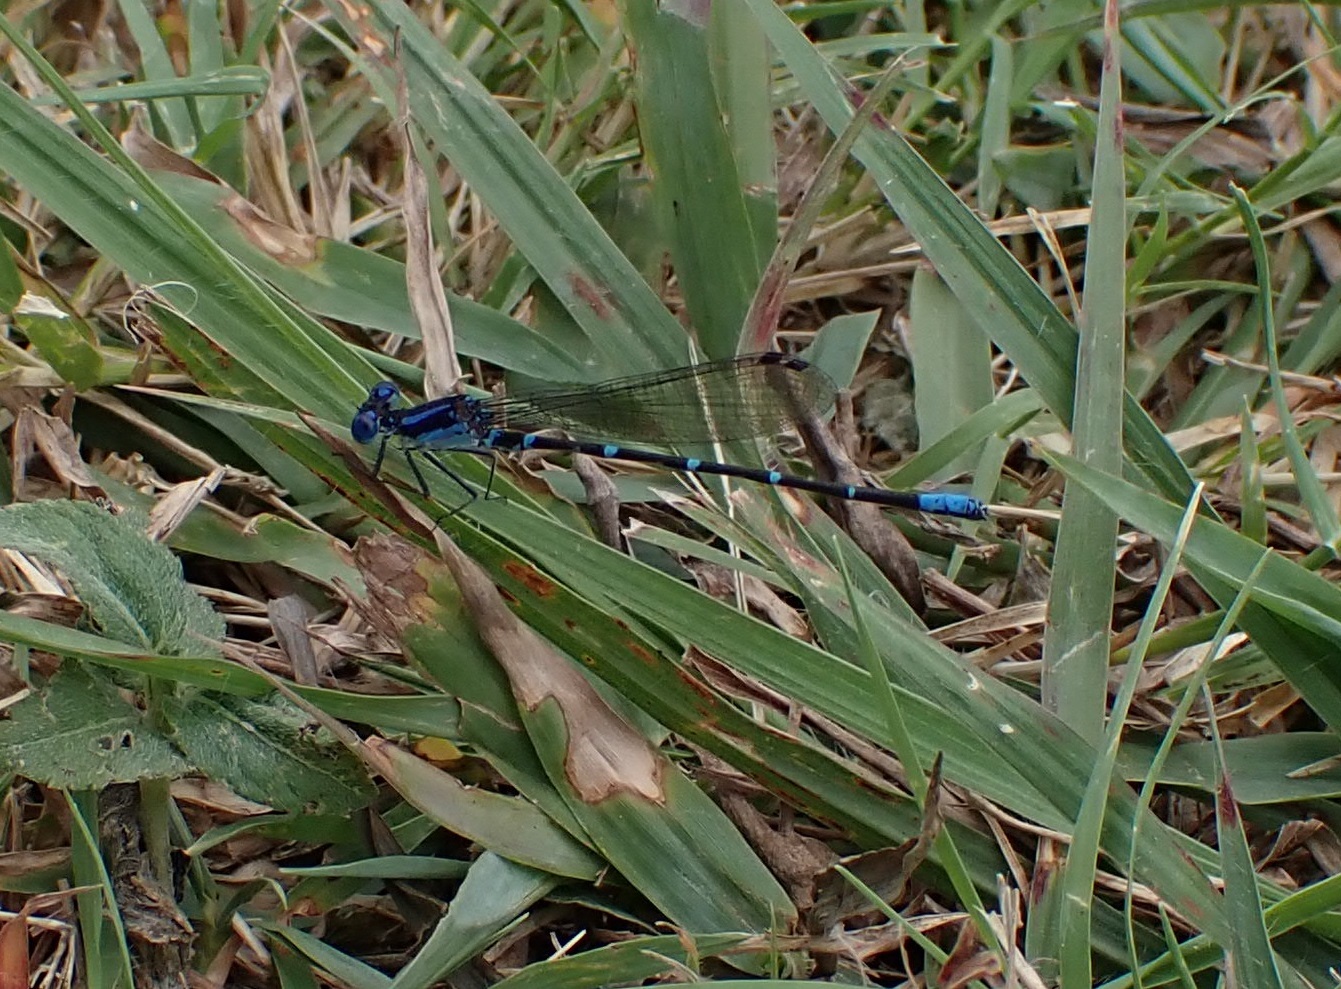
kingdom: Animalia
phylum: Arthropoda
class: Insecta
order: Odonata
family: Coenagrionidae
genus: Argia
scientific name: Argia sedula
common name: Blue-ringed dancer
